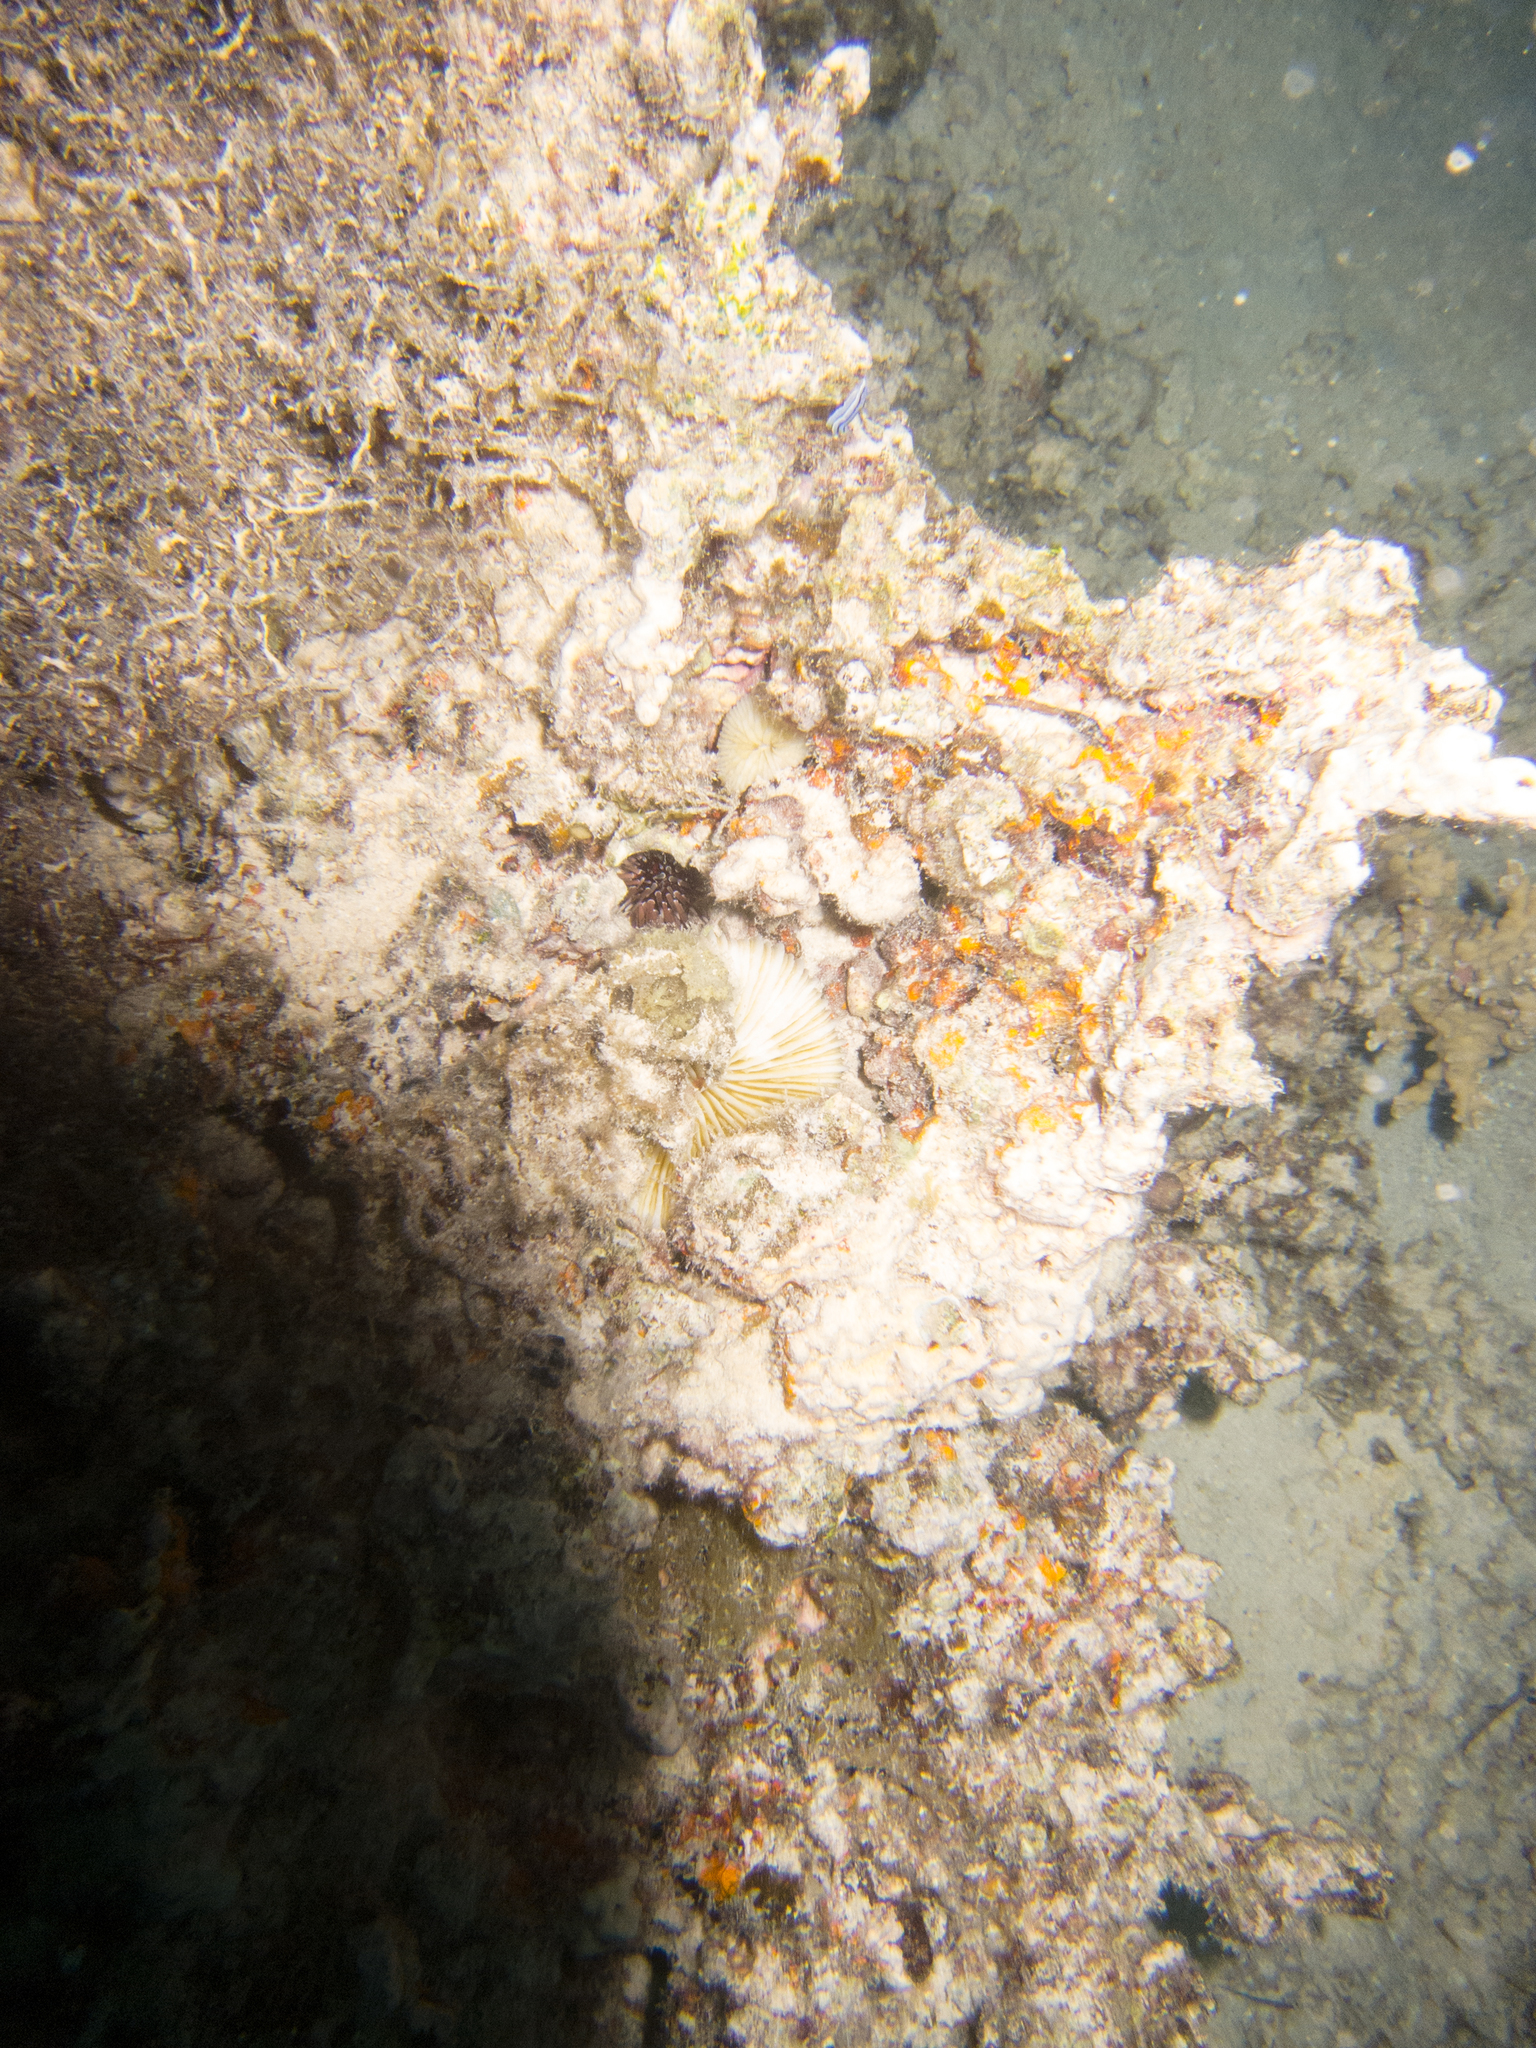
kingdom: Animalia
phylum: Echinodermata
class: Echinoidea
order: Camarodonta
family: Echinometridae
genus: Echinometra
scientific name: Echinometra mathaei
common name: Rock-boring urchin
